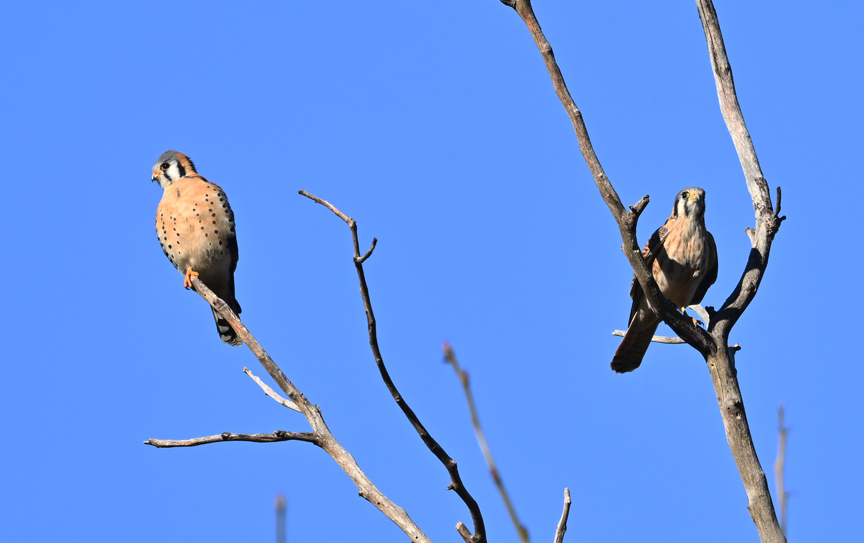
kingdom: Animalia
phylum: Chordata
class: Aves
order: Falconiformes
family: Falconidae
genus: Falco
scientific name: Falco sparverius
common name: American kestrel
